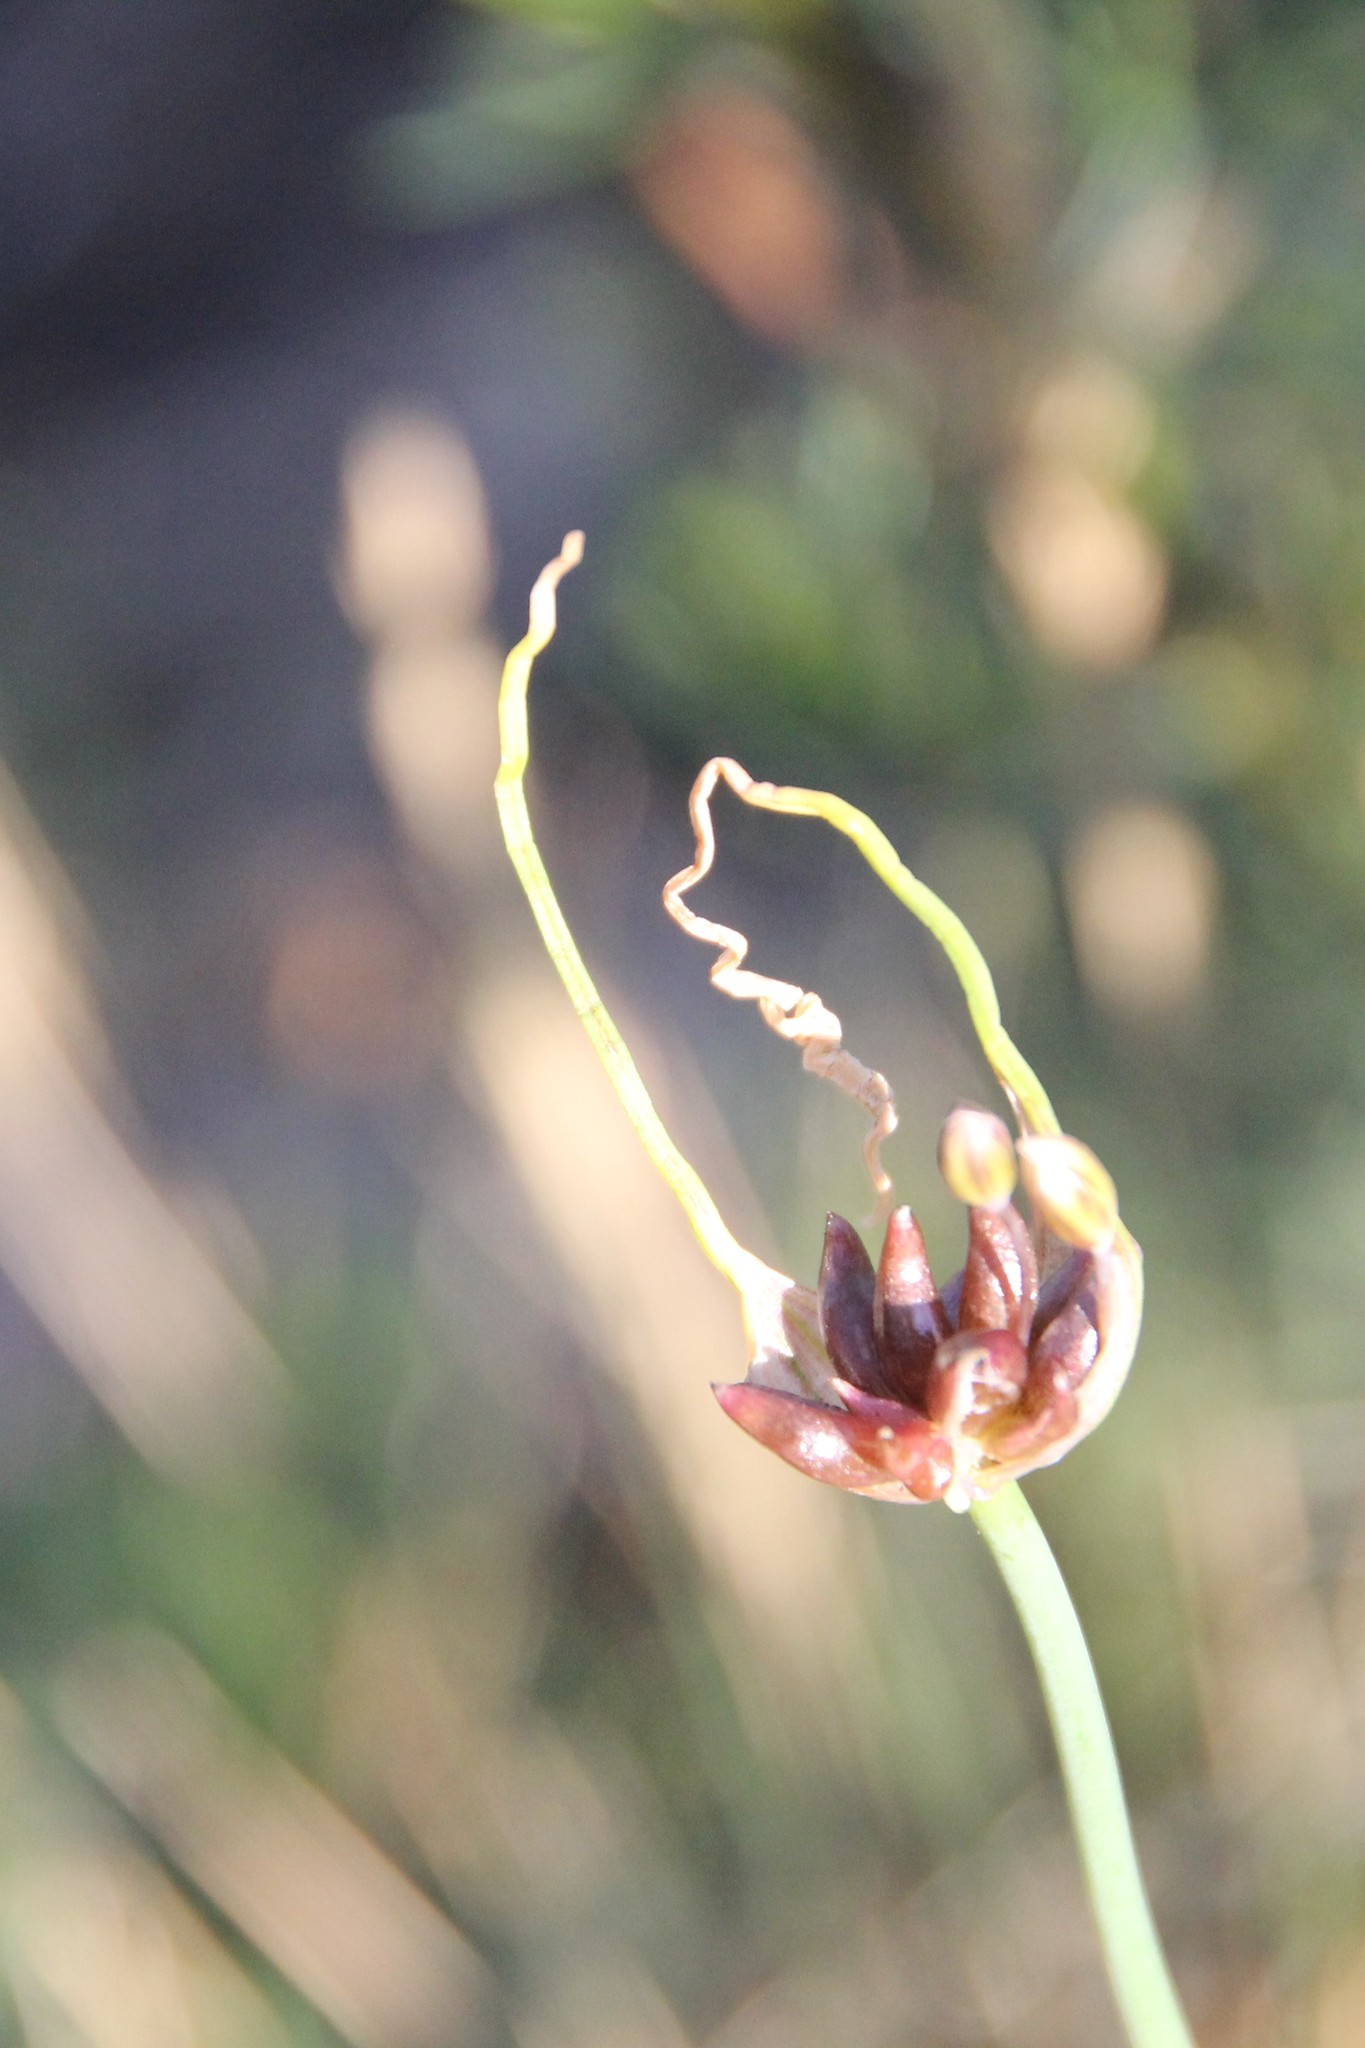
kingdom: Plantae
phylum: Tracheophyta
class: Liliopsida
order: Asparagales
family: Amaryllidaceae
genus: Allium
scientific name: Allium oleraceum
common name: Field garlic
